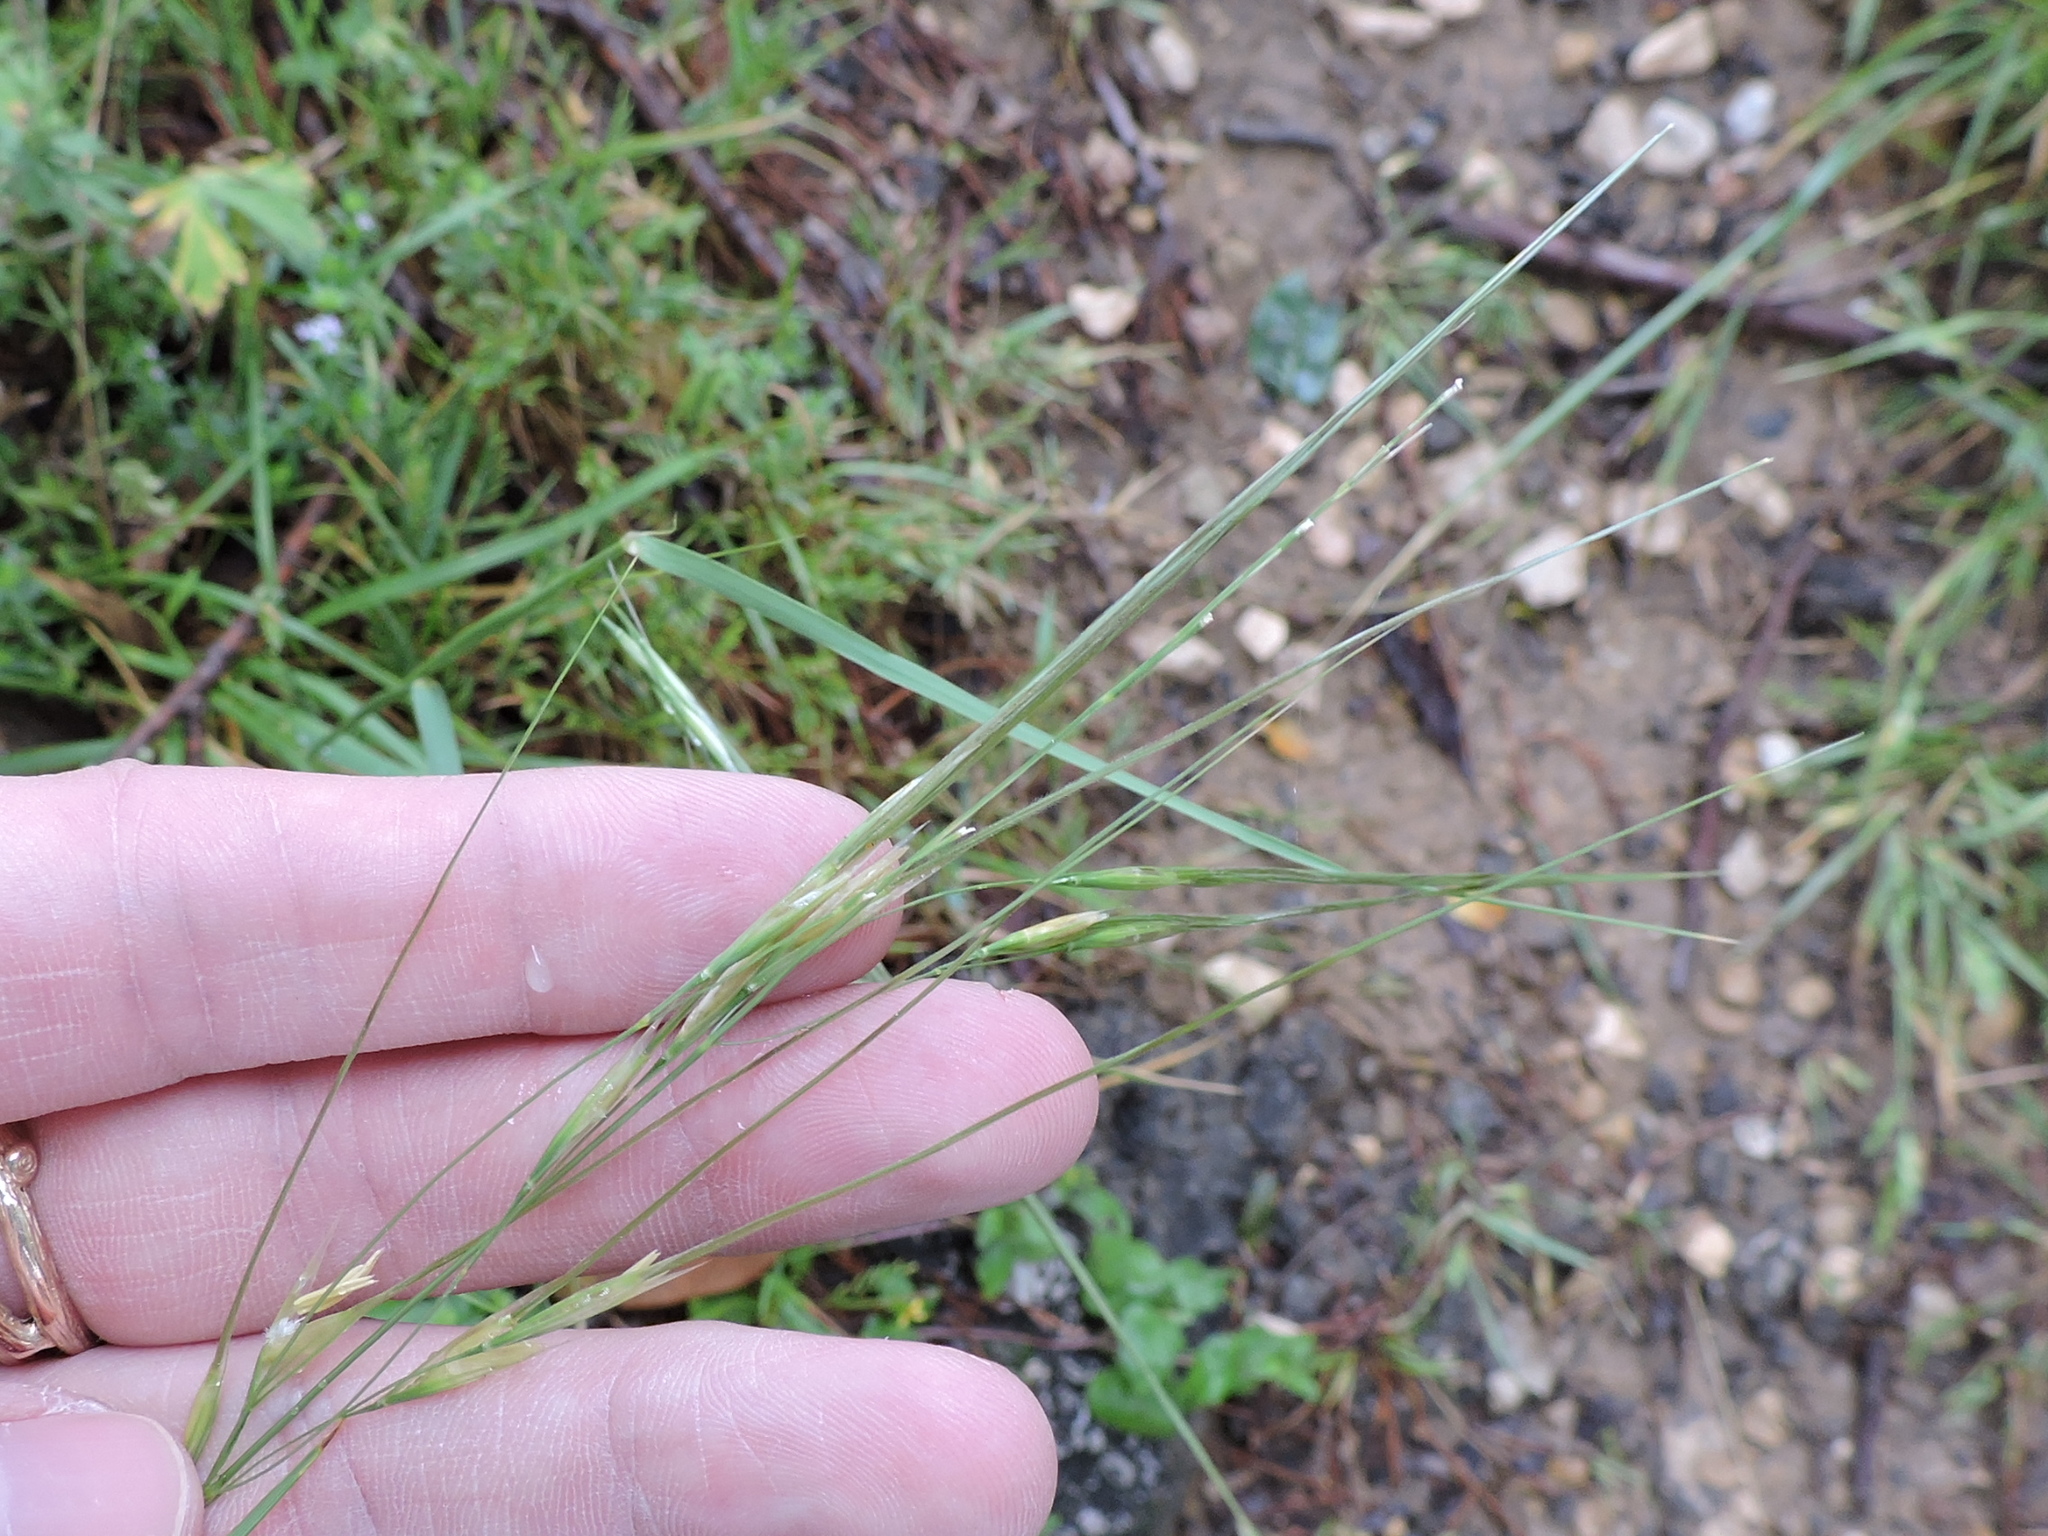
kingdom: Plantae
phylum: Tracheophyta
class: Liliopsida
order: Poales
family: Poaceae
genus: Nassella
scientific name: Nassella leucotricha
